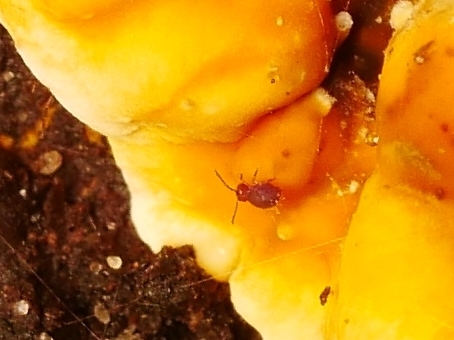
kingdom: Animalia
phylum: Arthropoda
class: Collembola
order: Symphypleona
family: Dicyrtomidae
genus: Dicyrtoma
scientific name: Dicyrtoma fusca
